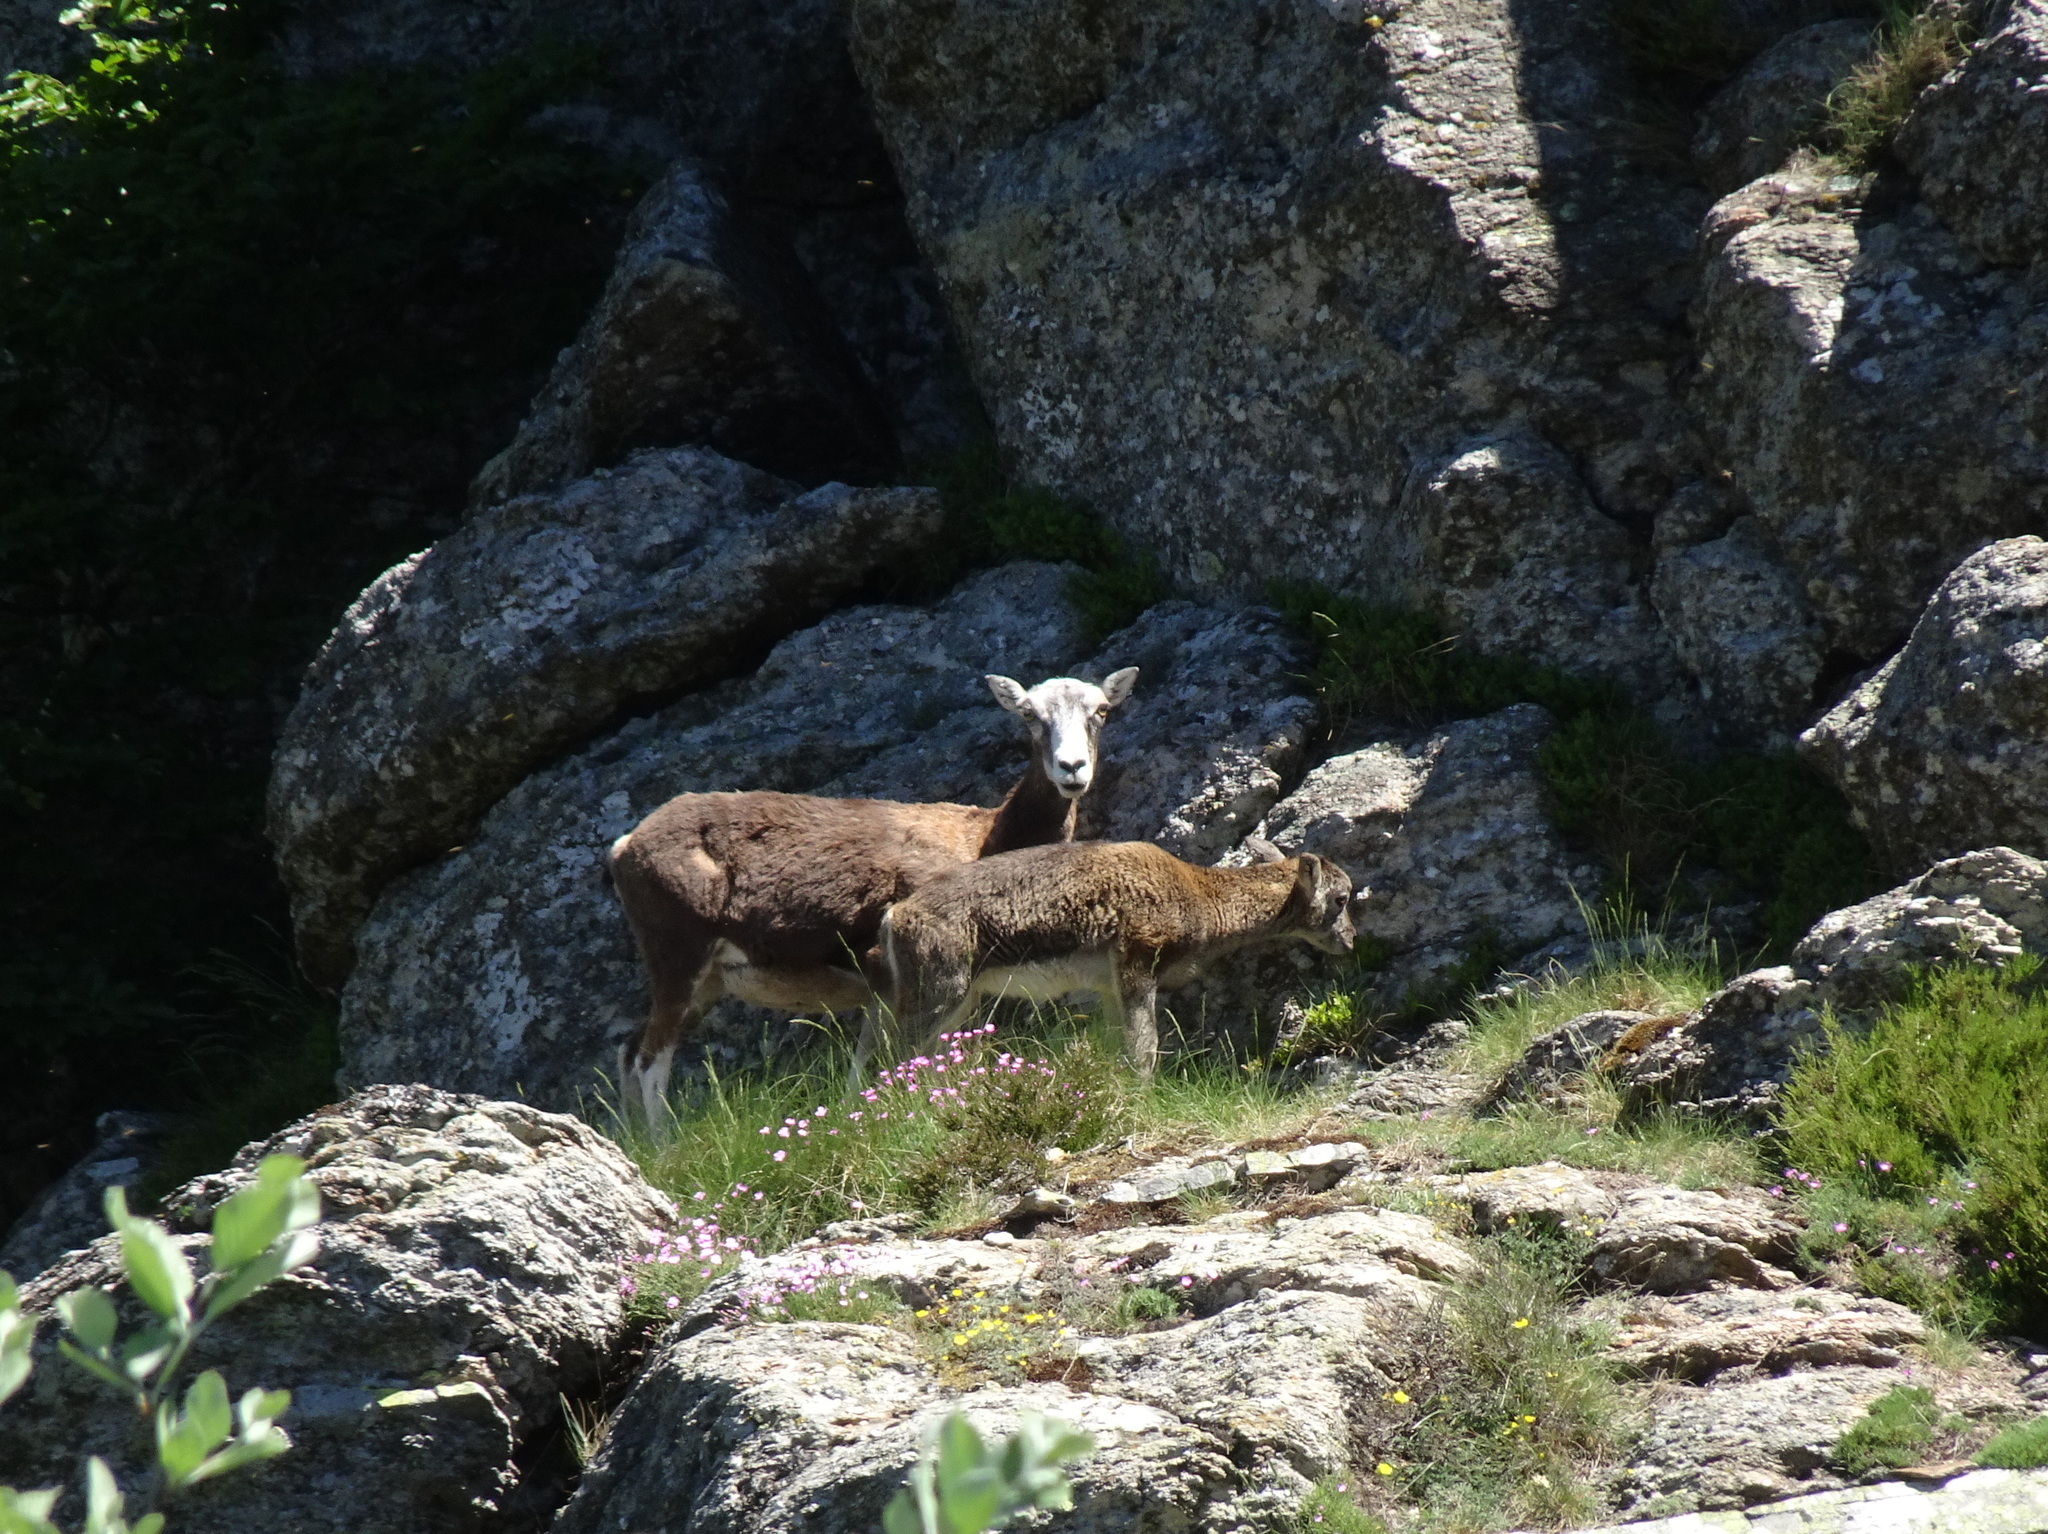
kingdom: Animalia
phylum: Chordata
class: Mammalia
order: Artiodactyla
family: Bovidae
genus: Ovis
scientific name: Ovis aries
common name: Domestic sheep
